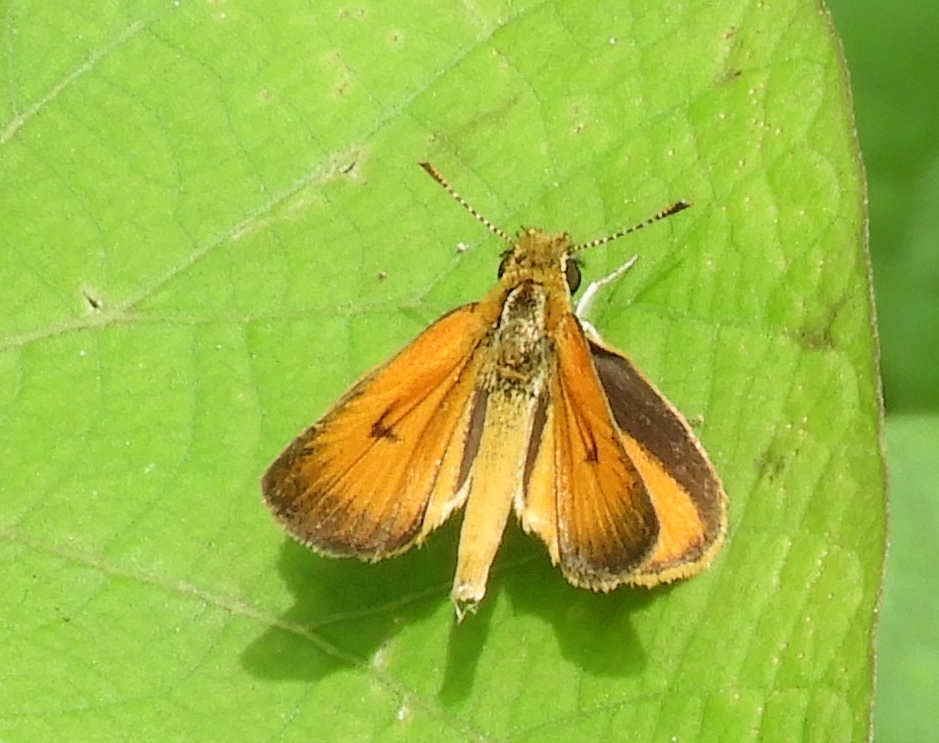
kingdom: Animalia
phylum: Arthropoda
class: Insecta
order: Lepidoptera
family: Hesperiidae
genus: Ancyloxypha
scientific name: Ancyloxypha arene
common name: Tropical least skipper
